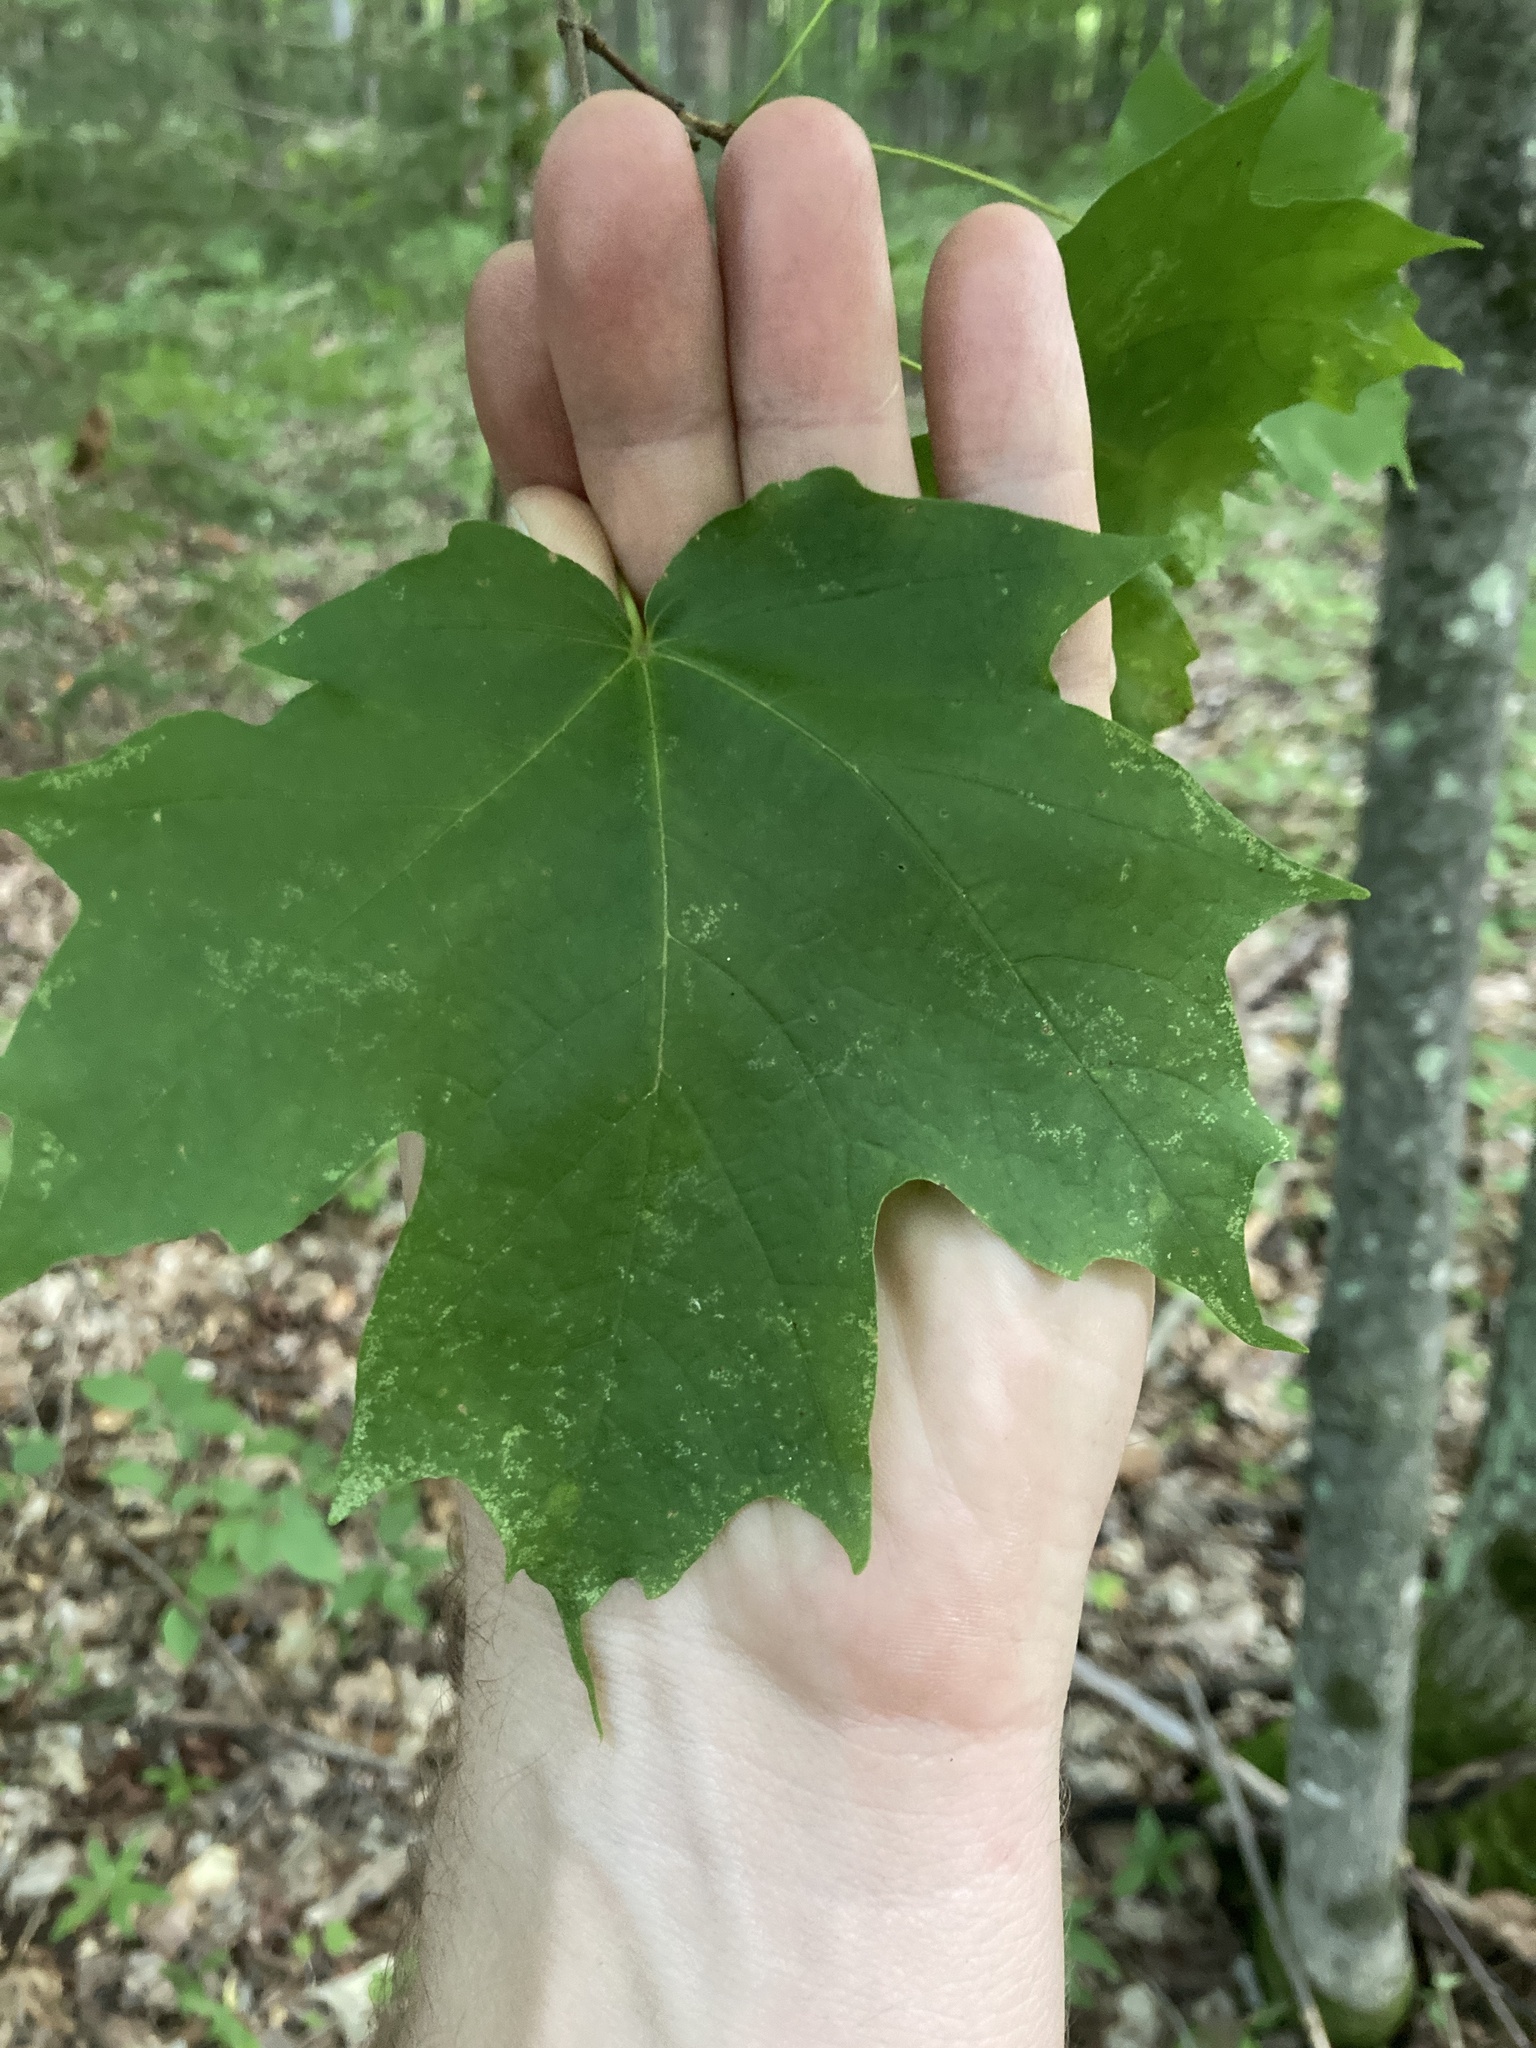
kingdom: Plantae
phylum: Tracheophyta
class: Magnoliopsida
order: Sapindales
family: Sapindaceae
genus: Acer
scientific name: Acer saccharum
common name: Sugar maple
